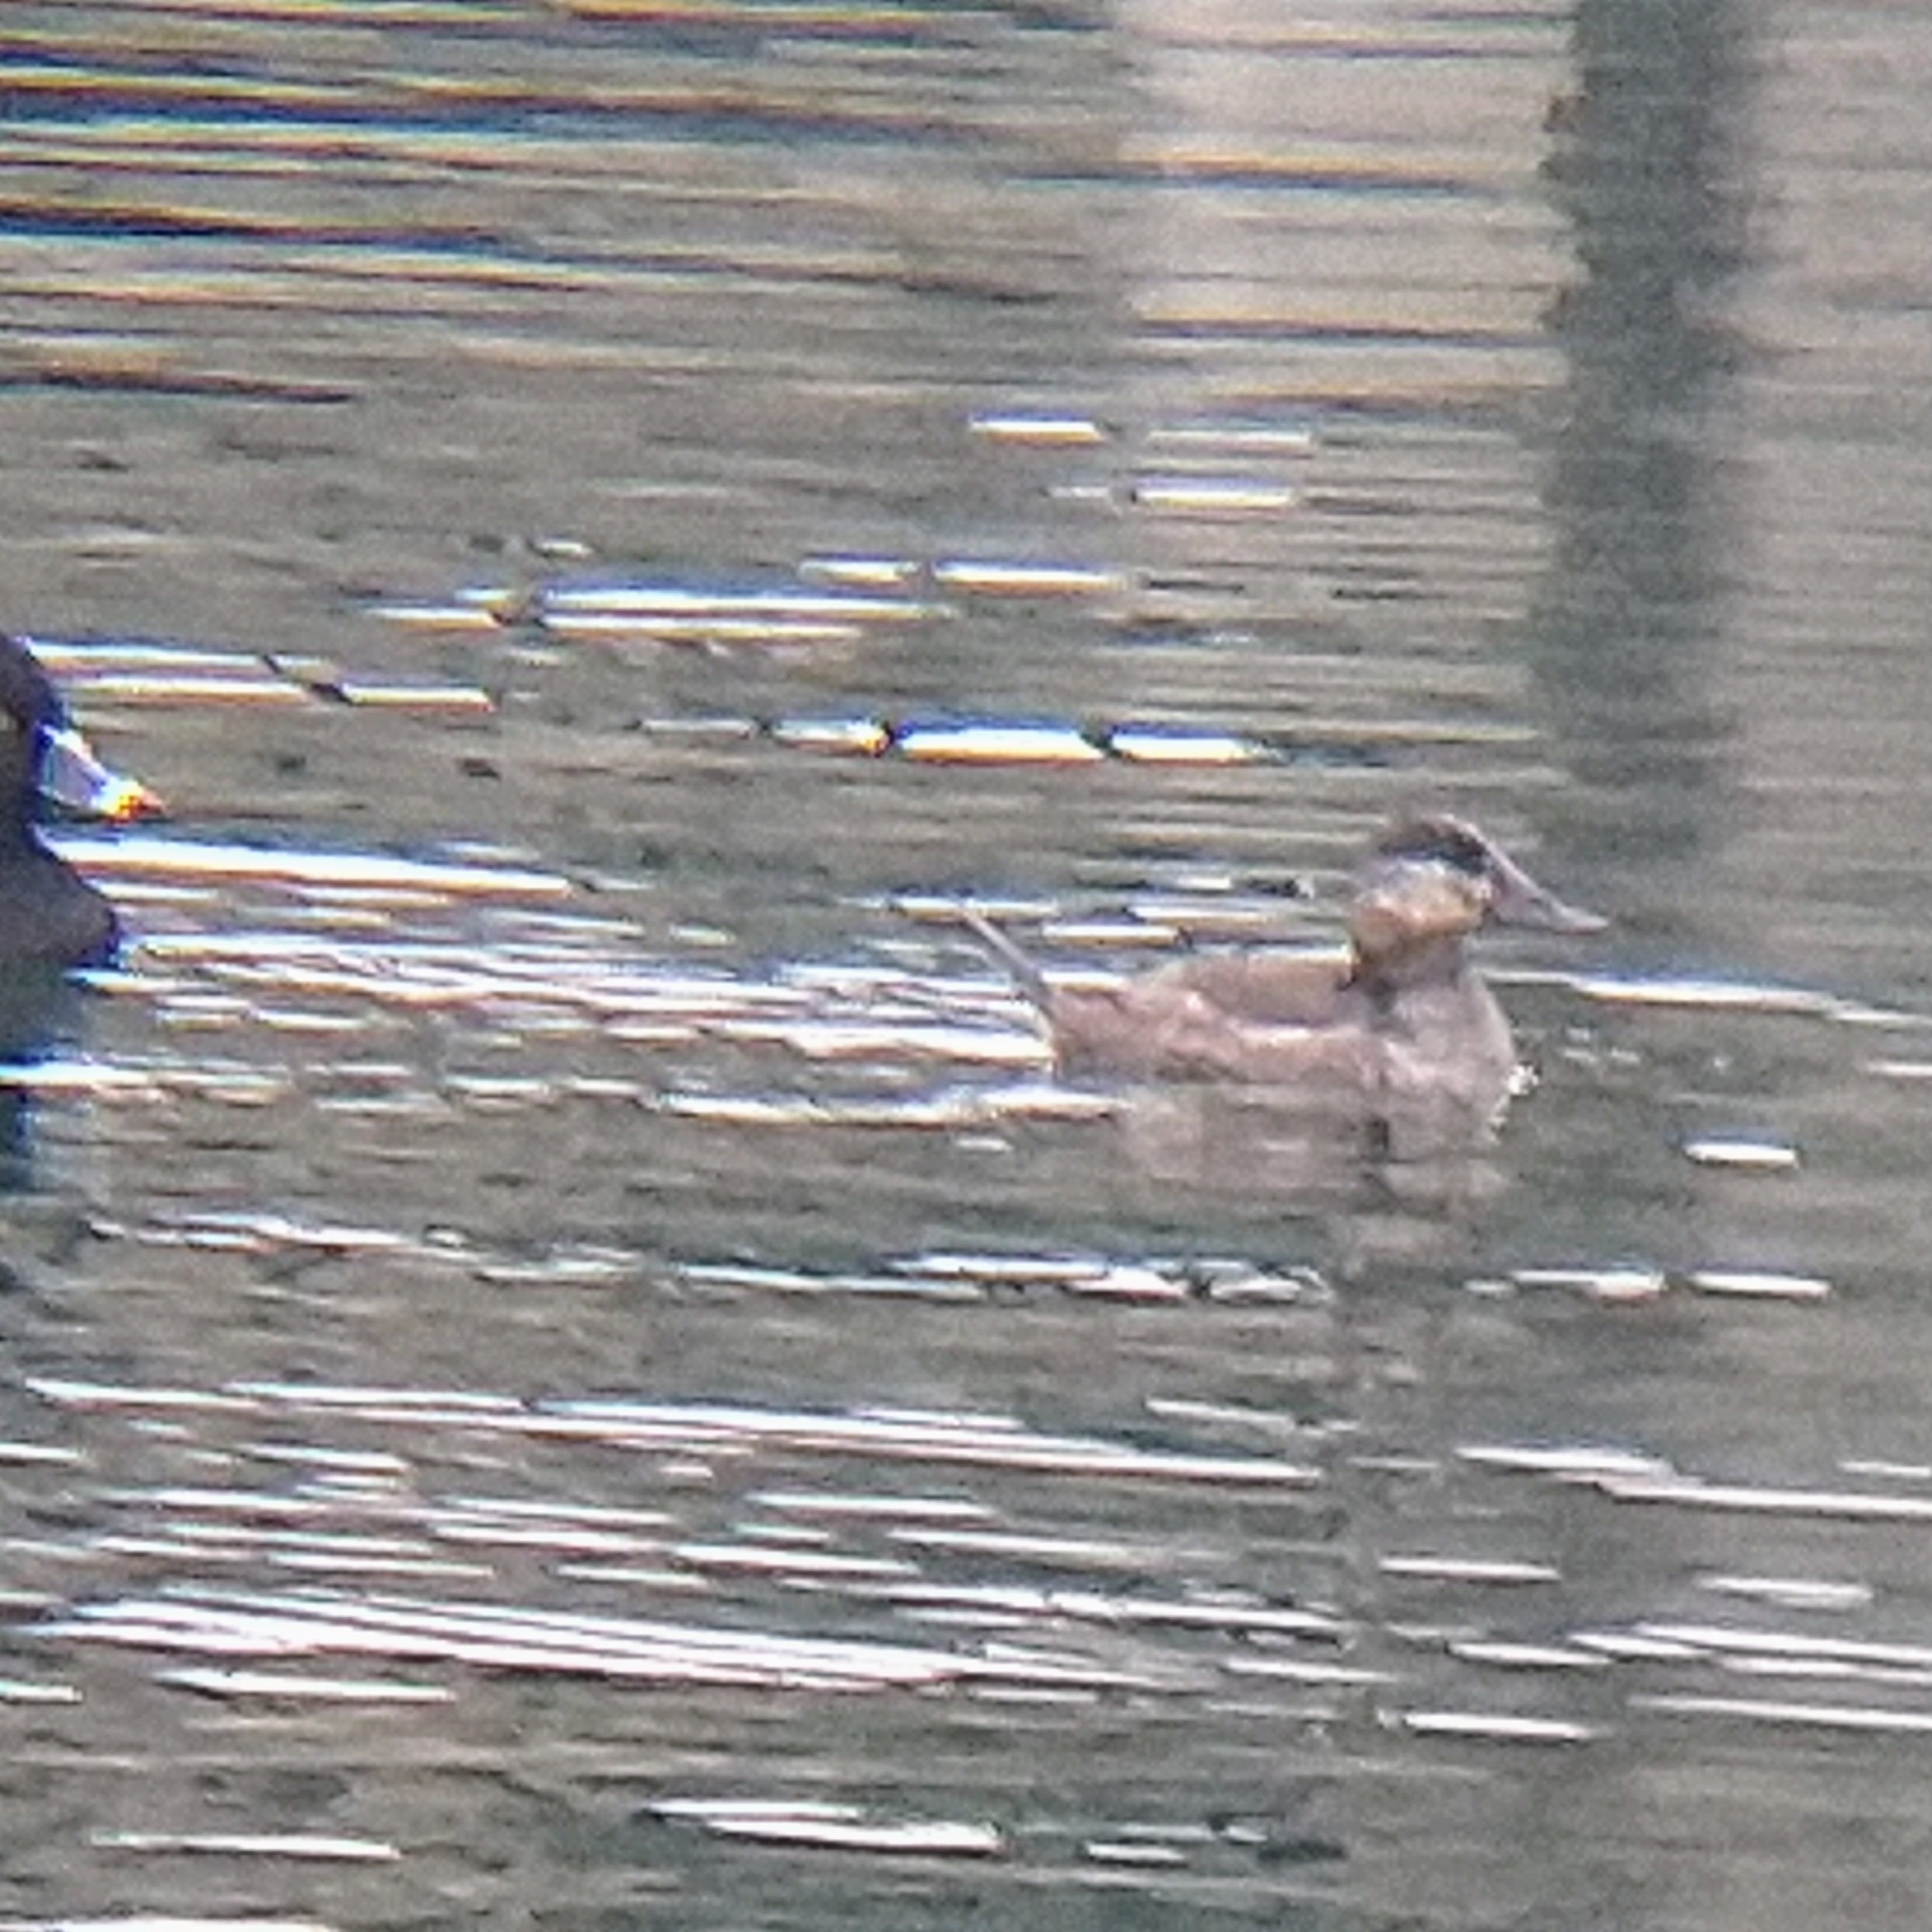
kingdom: Animalia
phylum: Chordata
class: Aves
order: Anseriformes
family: Anatidae
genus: Oxyura
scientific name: Oxyura jamaicensis
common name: Ruddy duck
